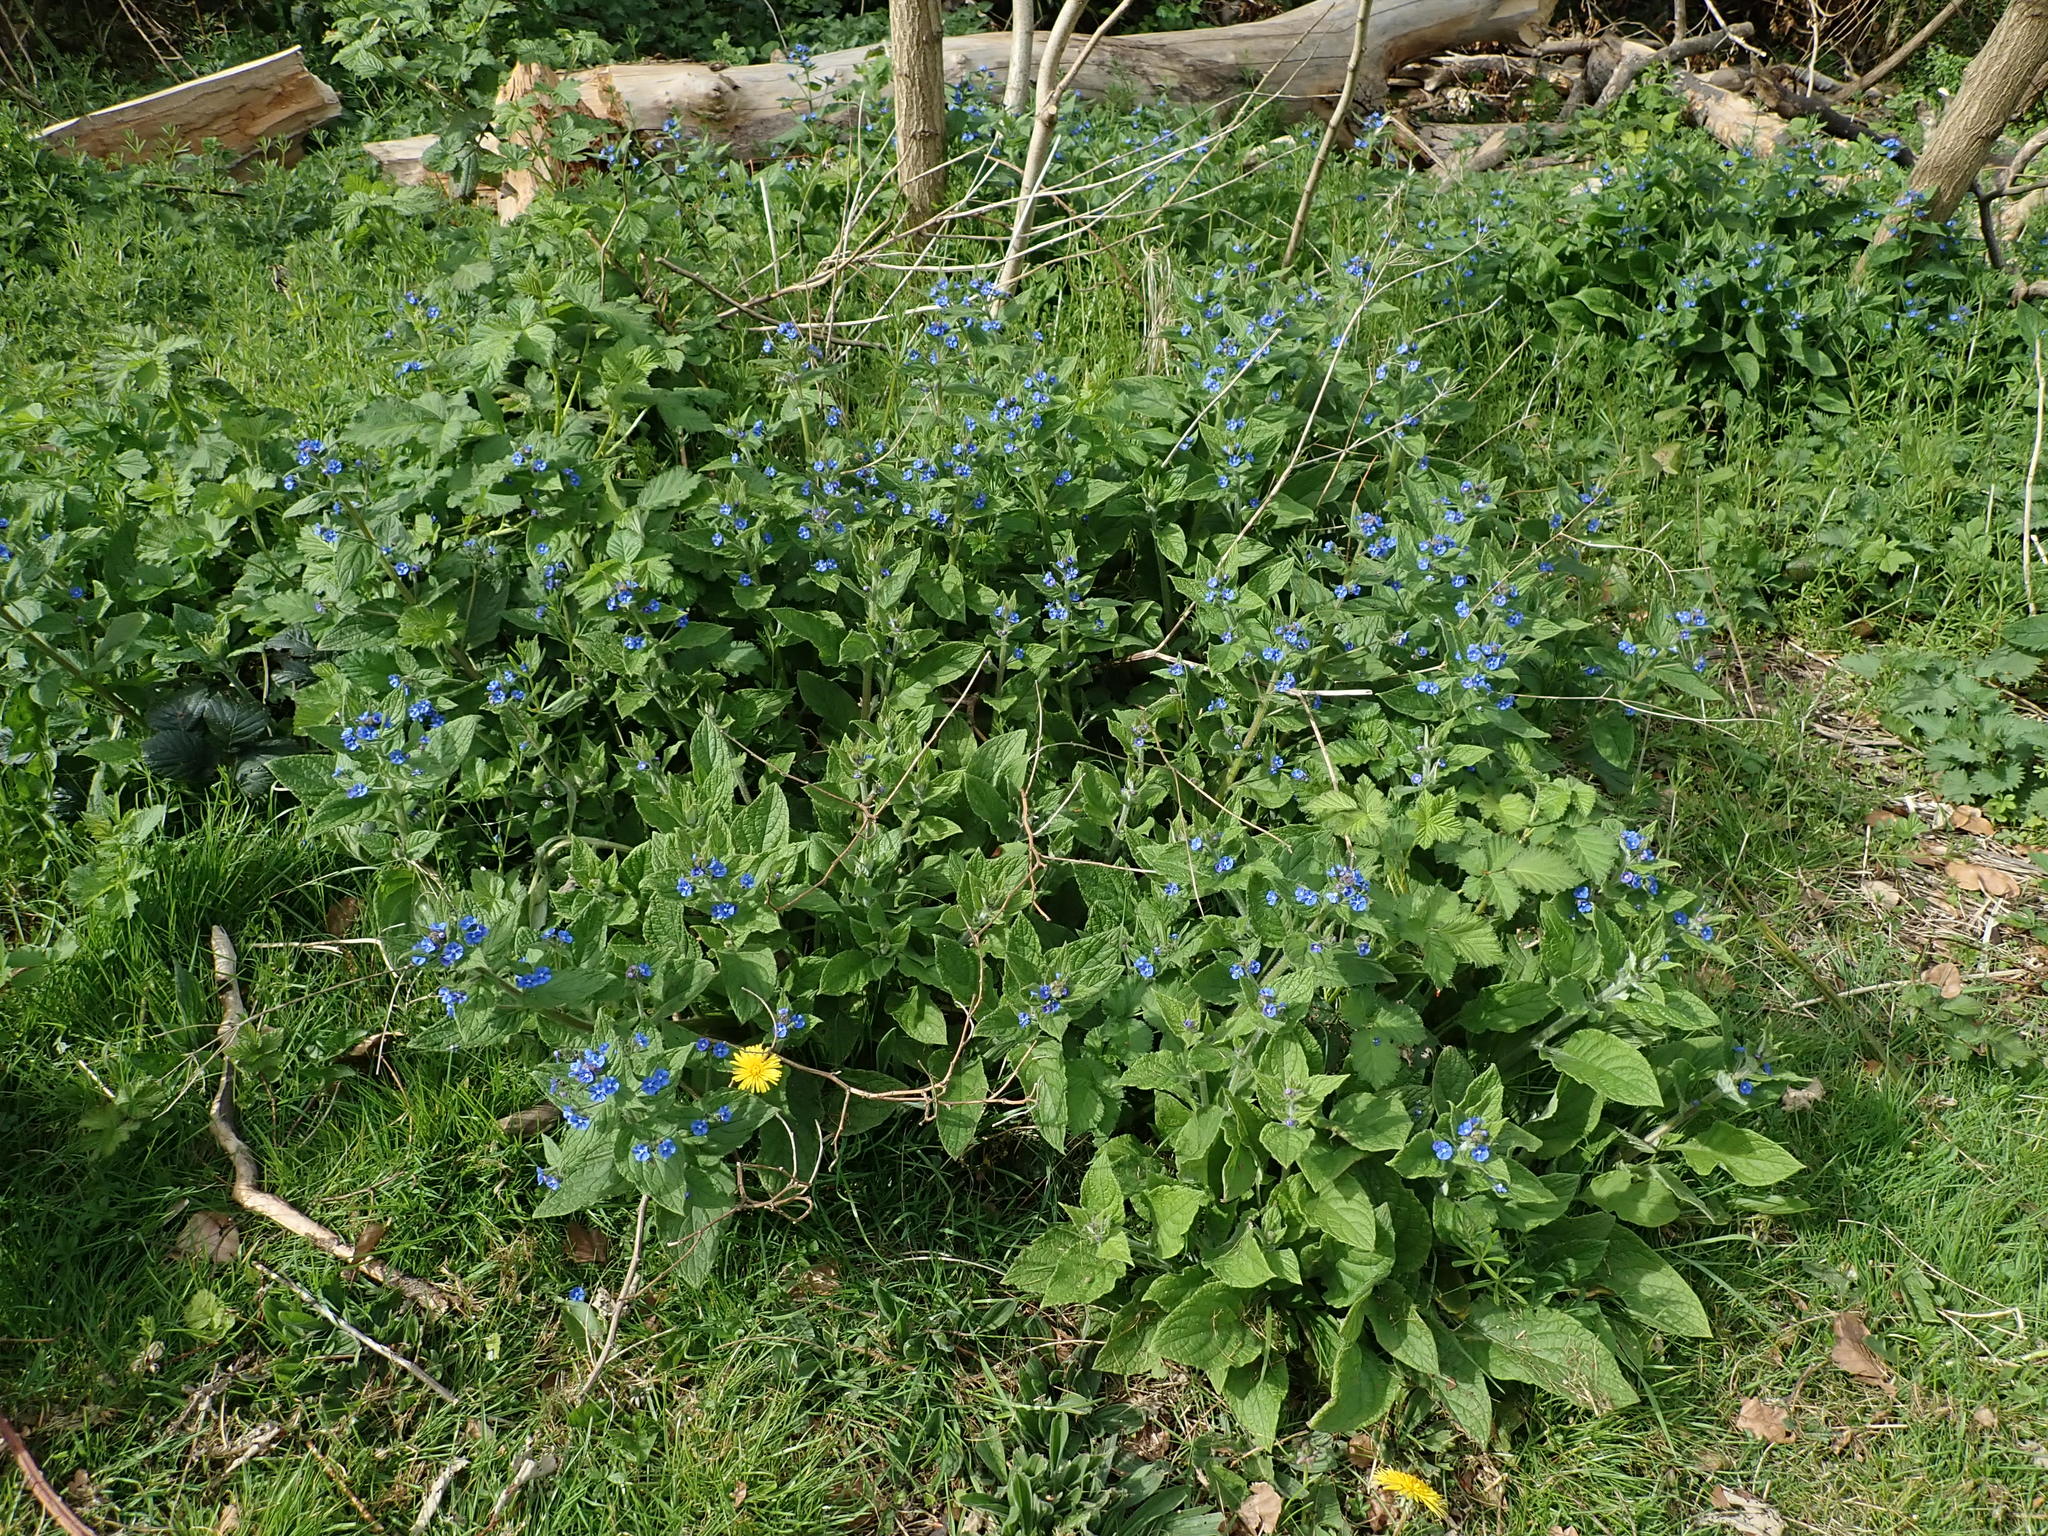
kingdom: Plantae
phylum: Tracheophyta
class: Magnoliopsida
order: Boraginales
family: Boraginaceae
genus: Pentaglottis
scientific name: Pentaglottis sempervirens
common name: Green alkanet
